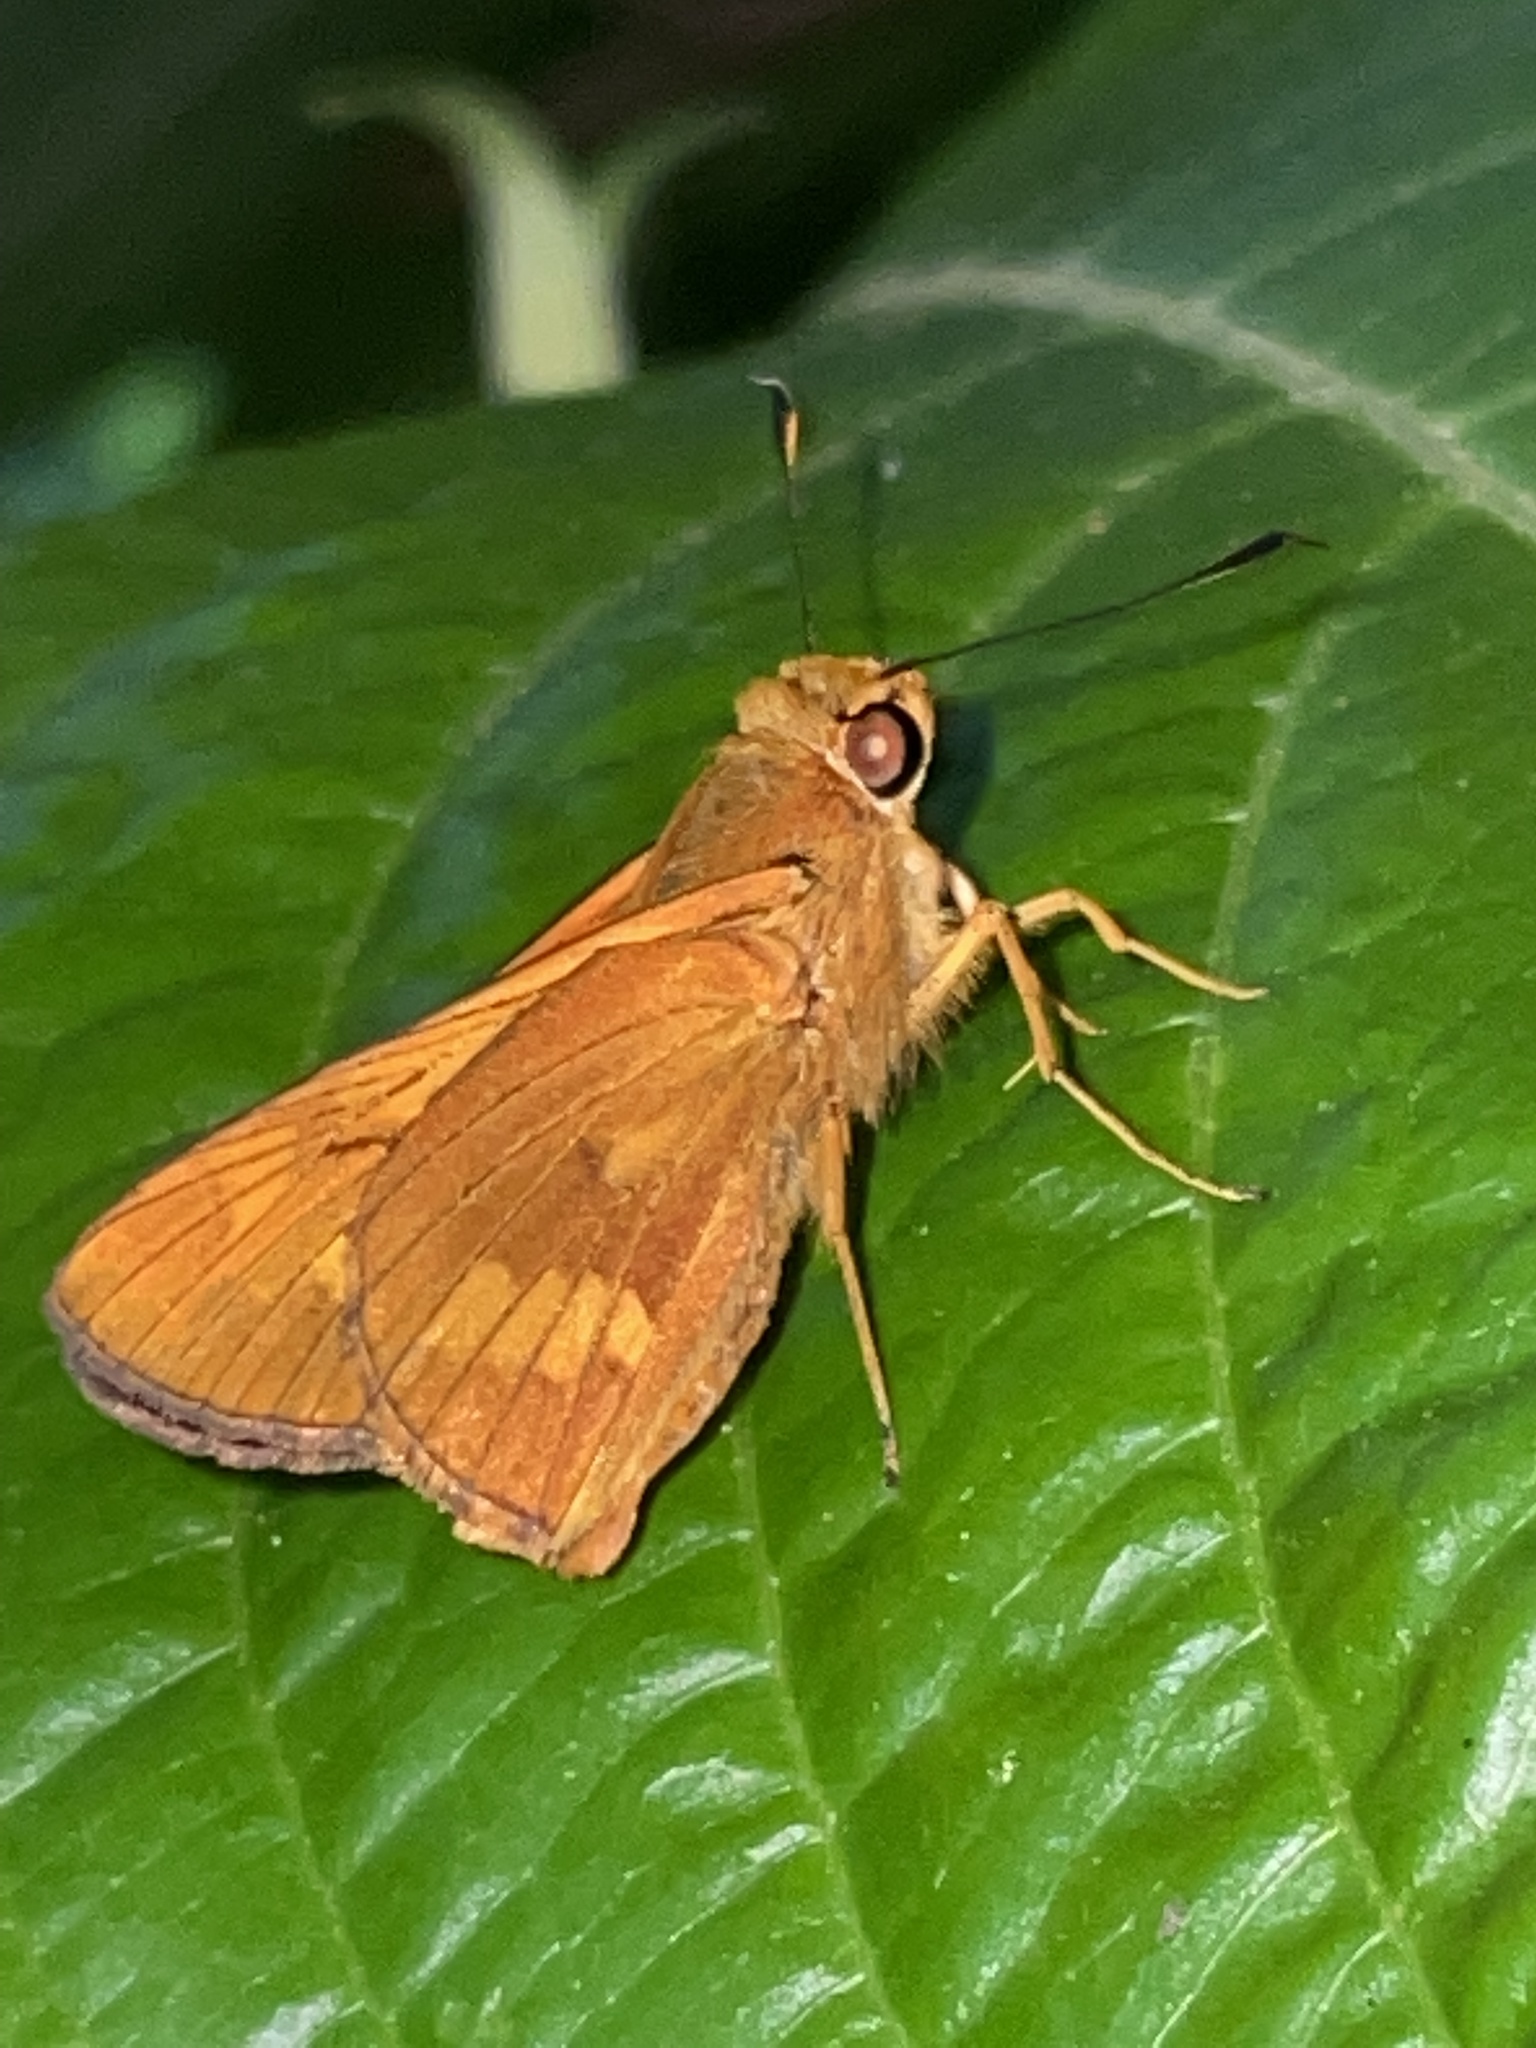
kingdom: Animalia
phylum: Arthropoda
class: Insecta
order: Lepidoptera
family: Hesperiidae
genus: Cephrenes
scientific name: Cephrenes augiades
